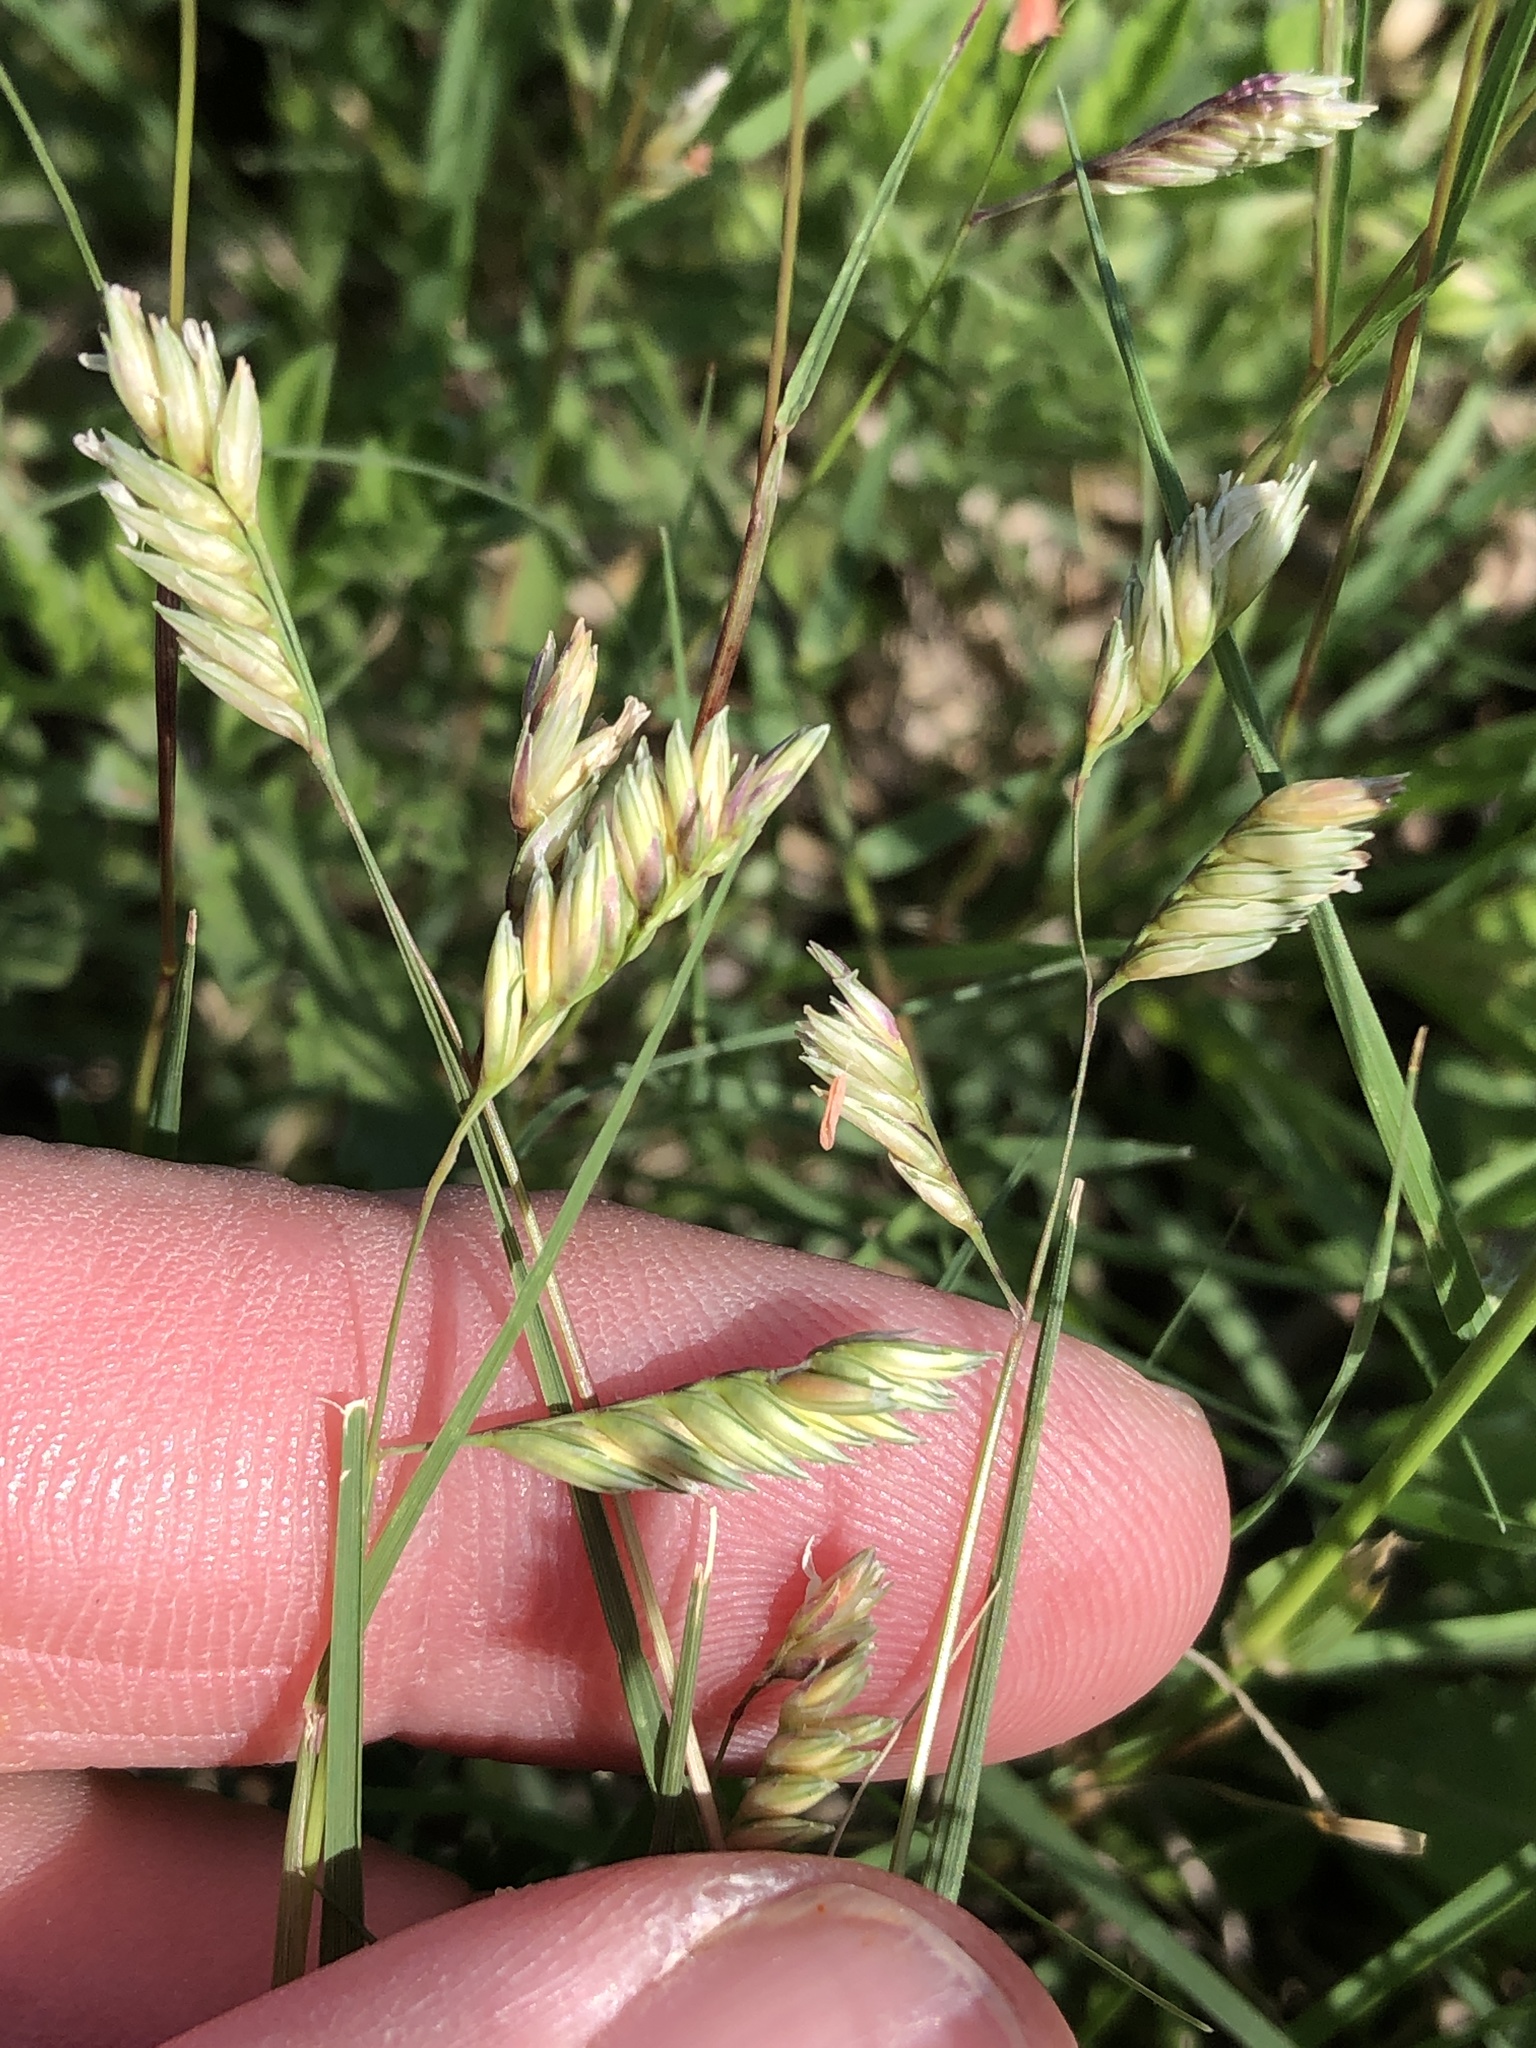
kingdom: Plantae
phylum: Tracheophyta
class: Liliopsida
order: Poales
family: Poaceae
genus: Bouteloua
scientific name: Bouteloua dactyloides
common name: Buffalo grass
